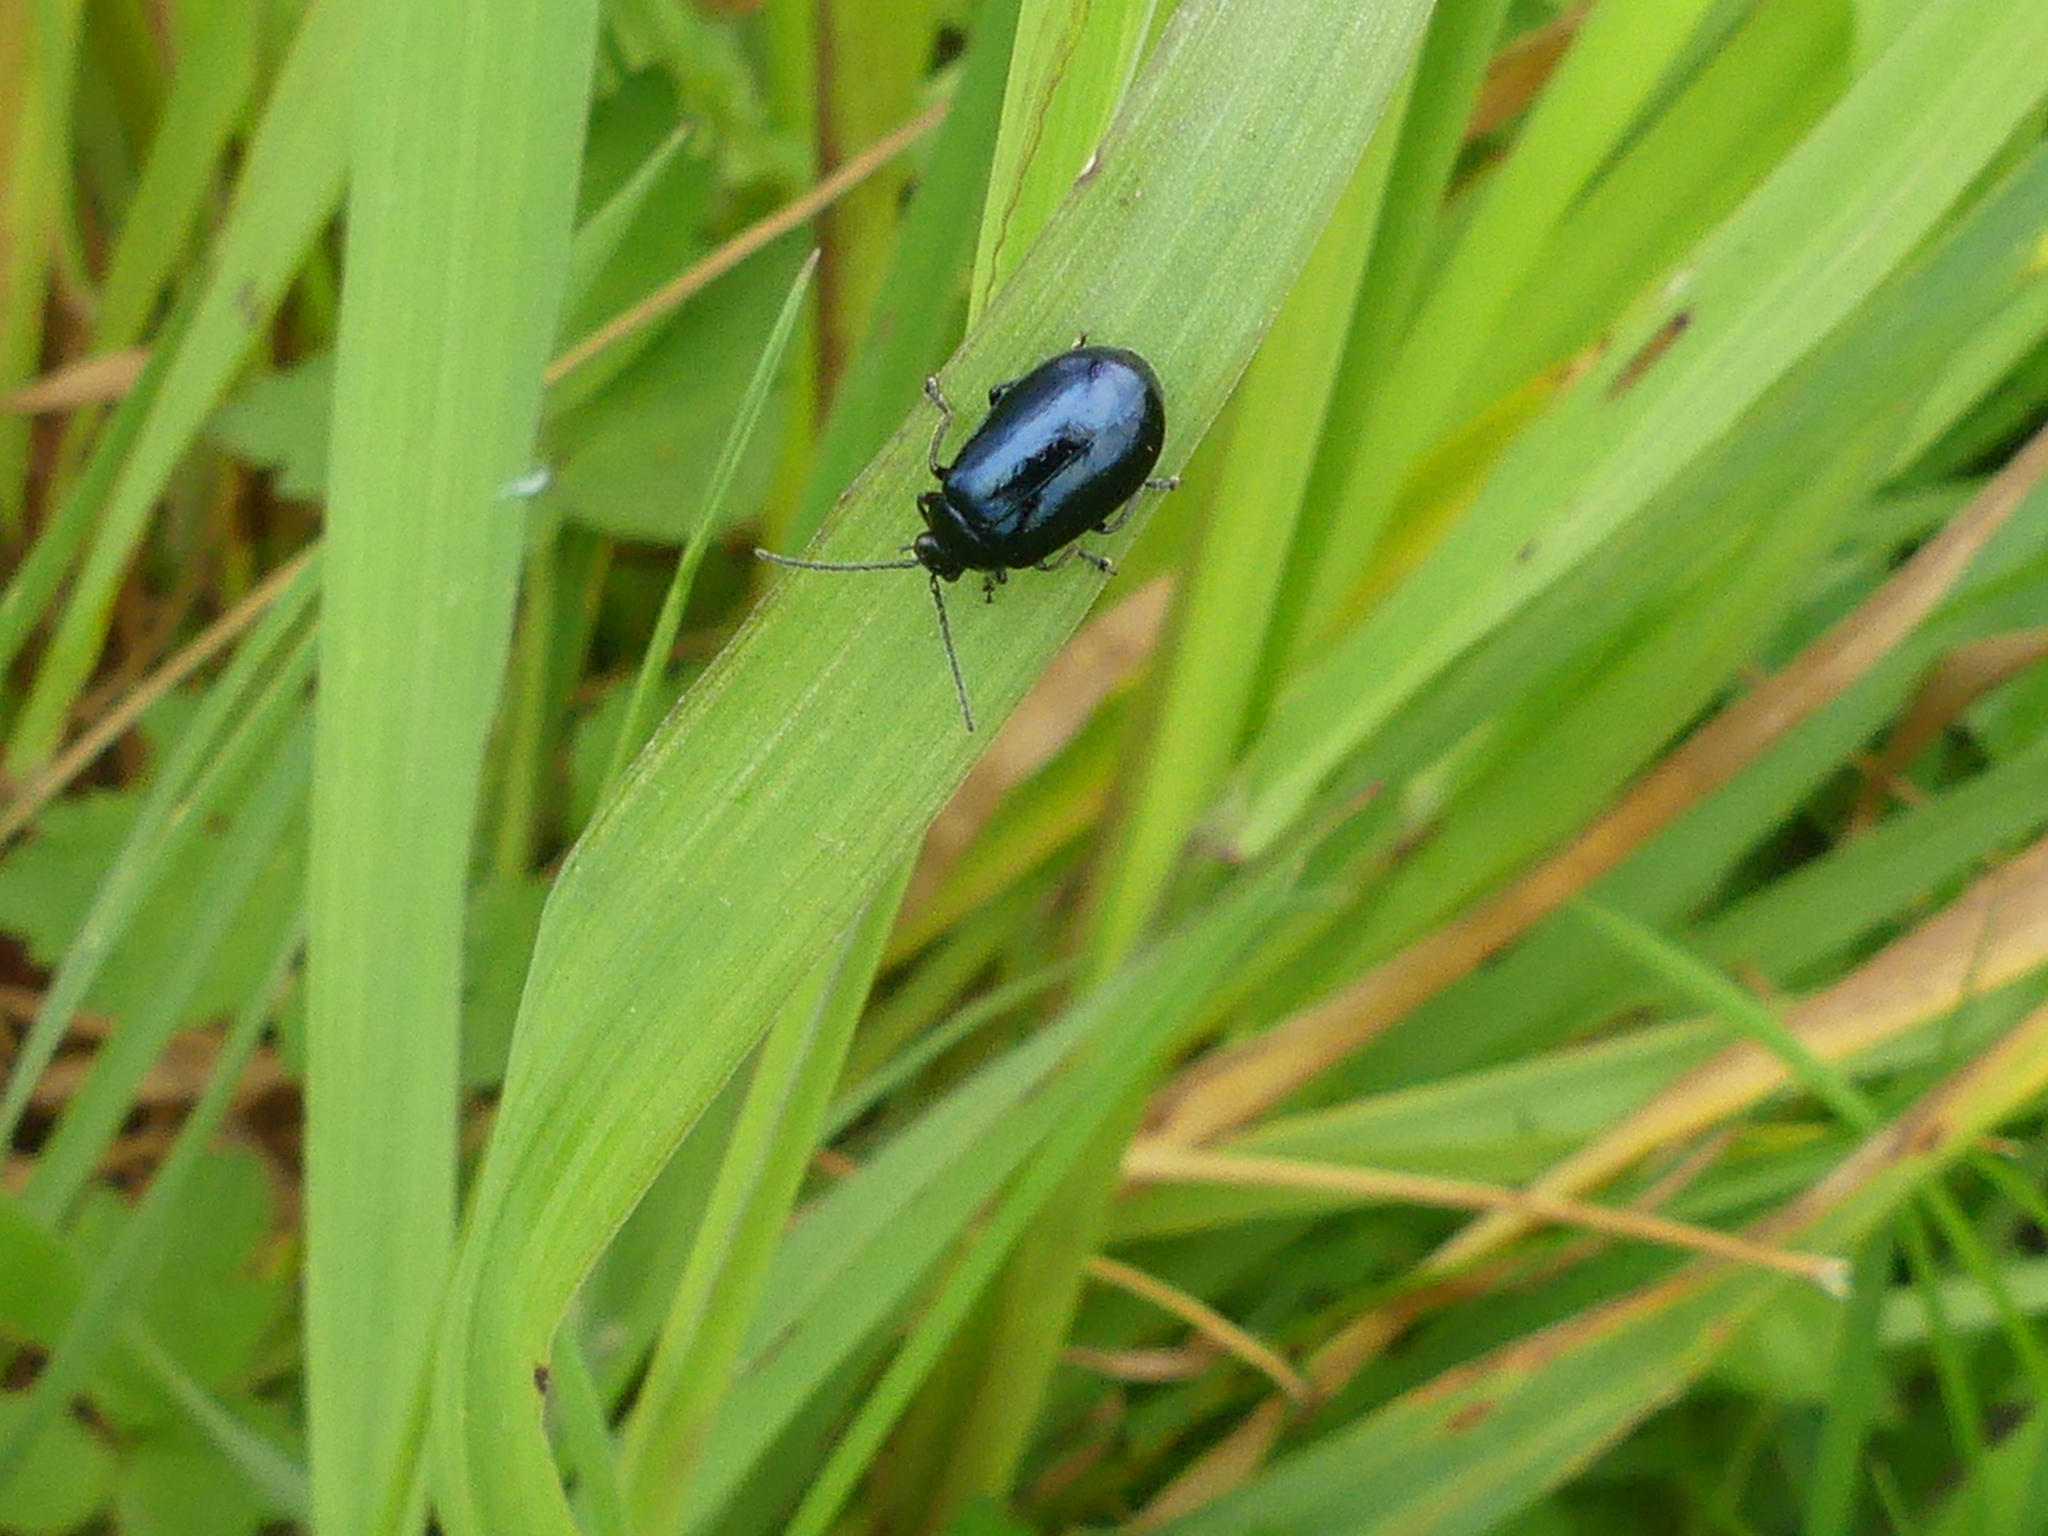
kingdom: Animalia
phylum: Arthropoda
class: Insecta
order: Coleoptera
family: Chrysomelidae
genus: Agelastica
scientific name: Agelastica alni
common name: Alder leaf beetle
